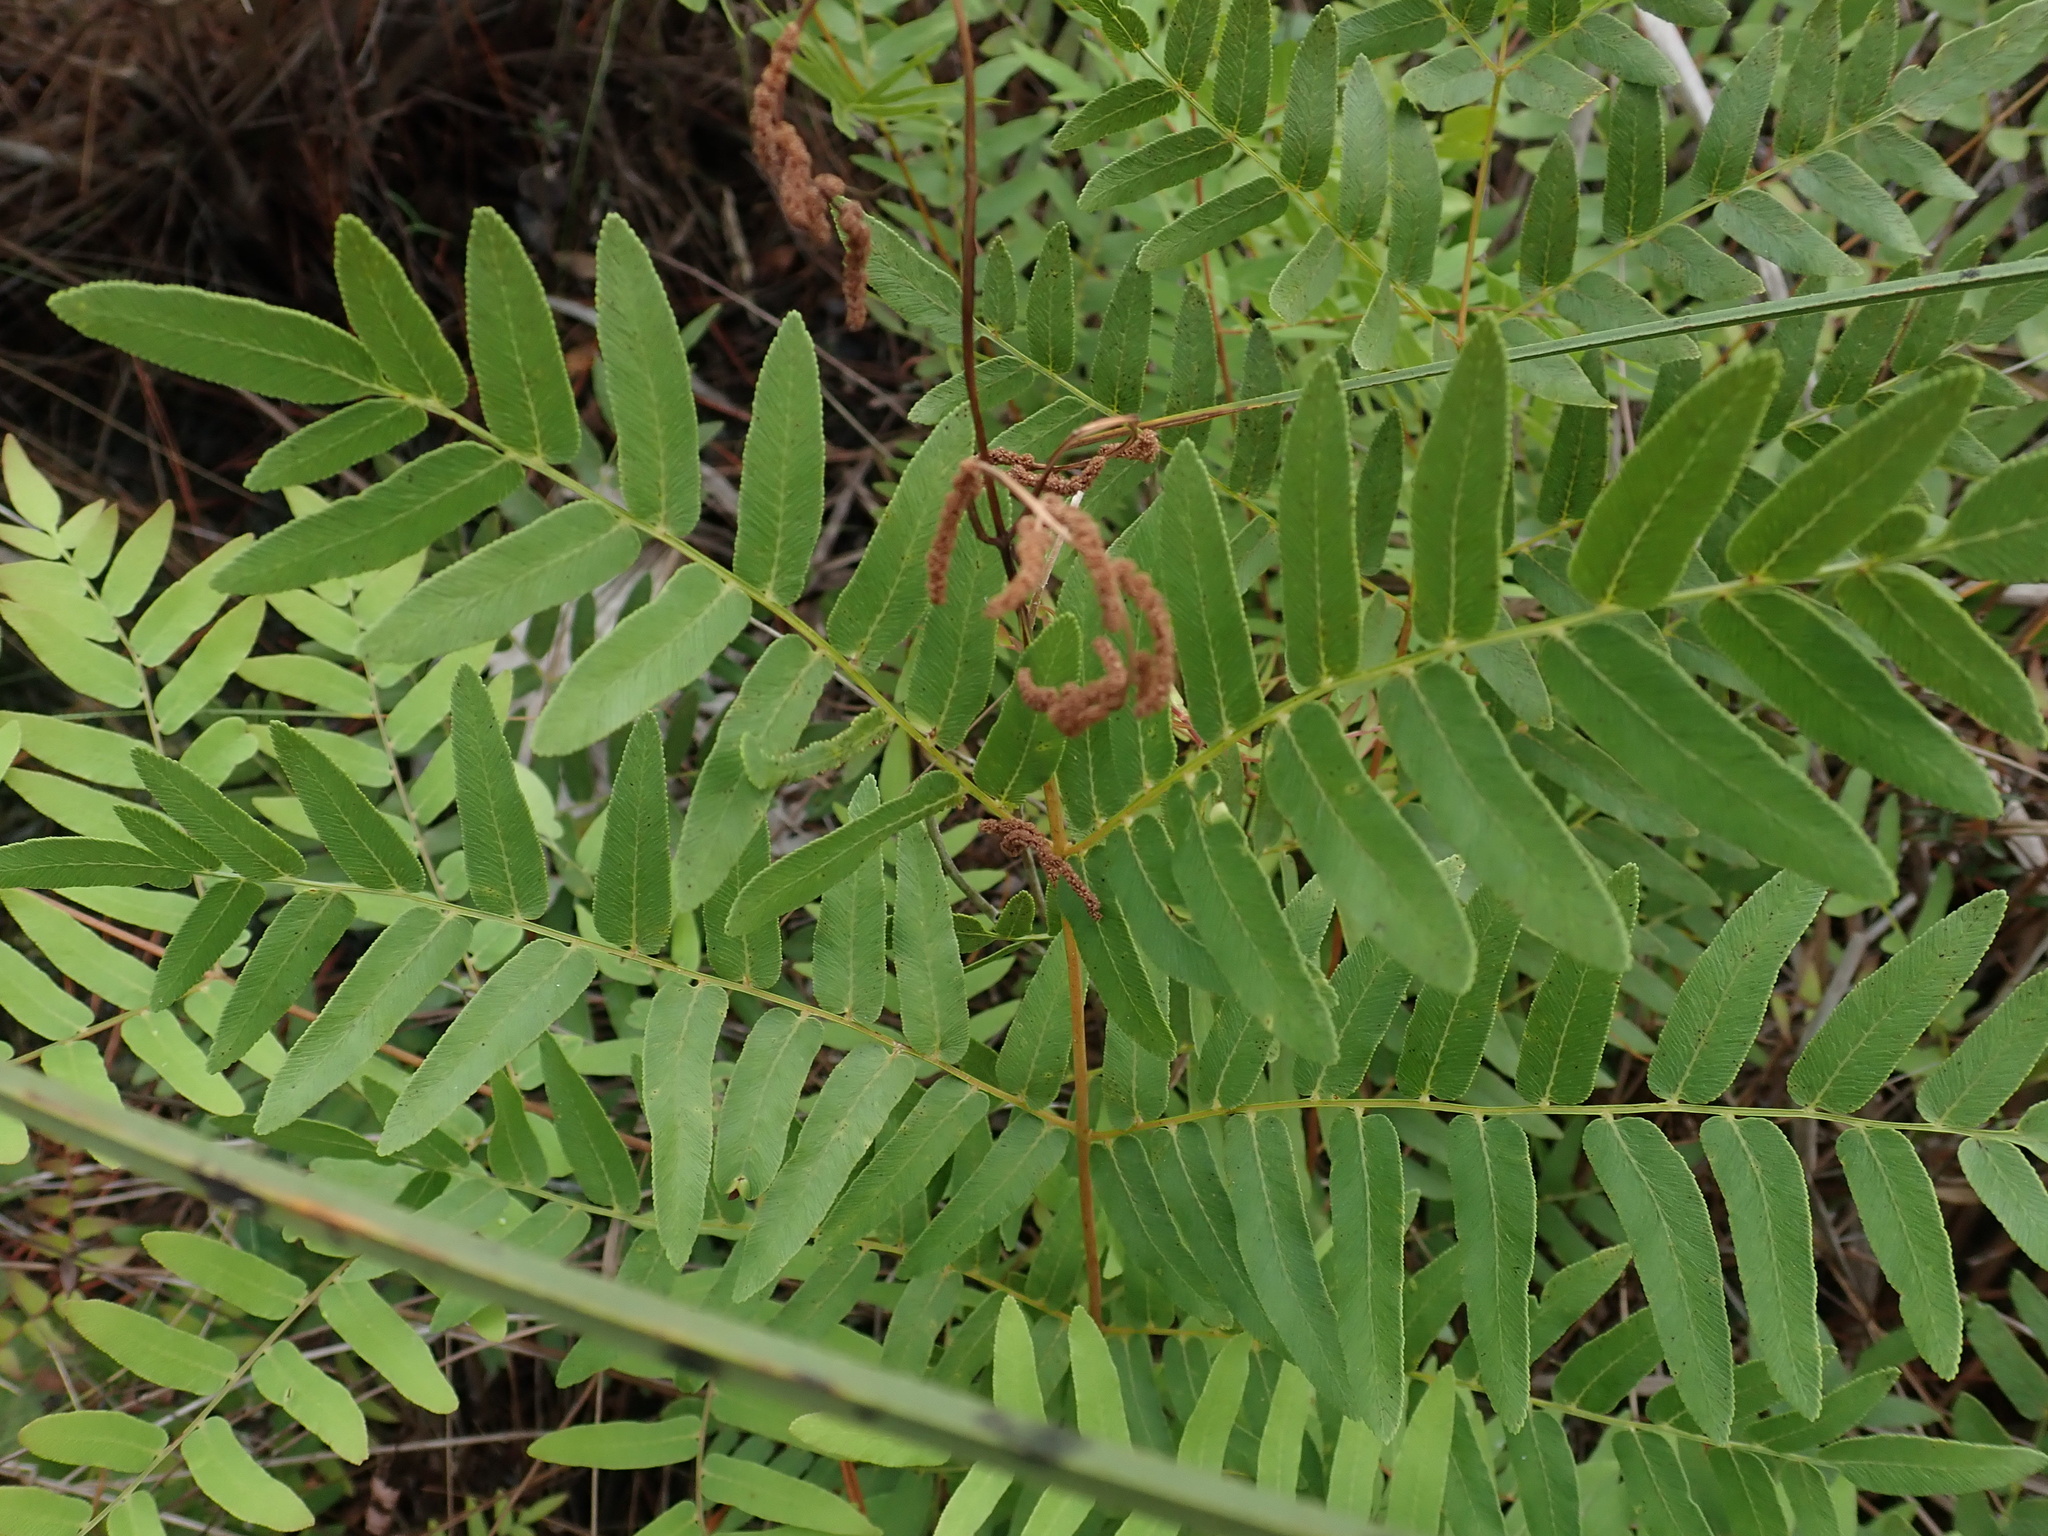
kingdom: Plantae
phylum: Tracheophyta
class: Polypodiopsida
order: Osmundales
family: Osmundaceae
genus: Osmunda
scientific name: Osmunda spectabilis
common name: American royal fern
